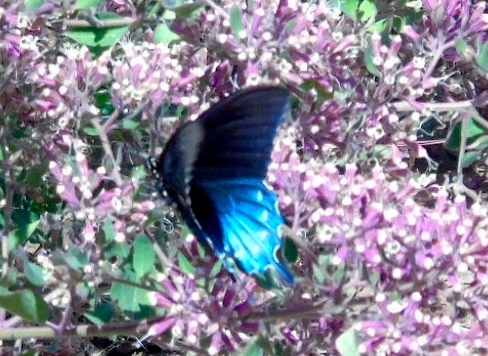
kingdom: Animalia
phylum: Arthropoda
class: Insecta
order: Lepidoptera
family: Papilionidae
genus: Battus
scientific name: Battus philenor
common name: Pipevine swallowtail
